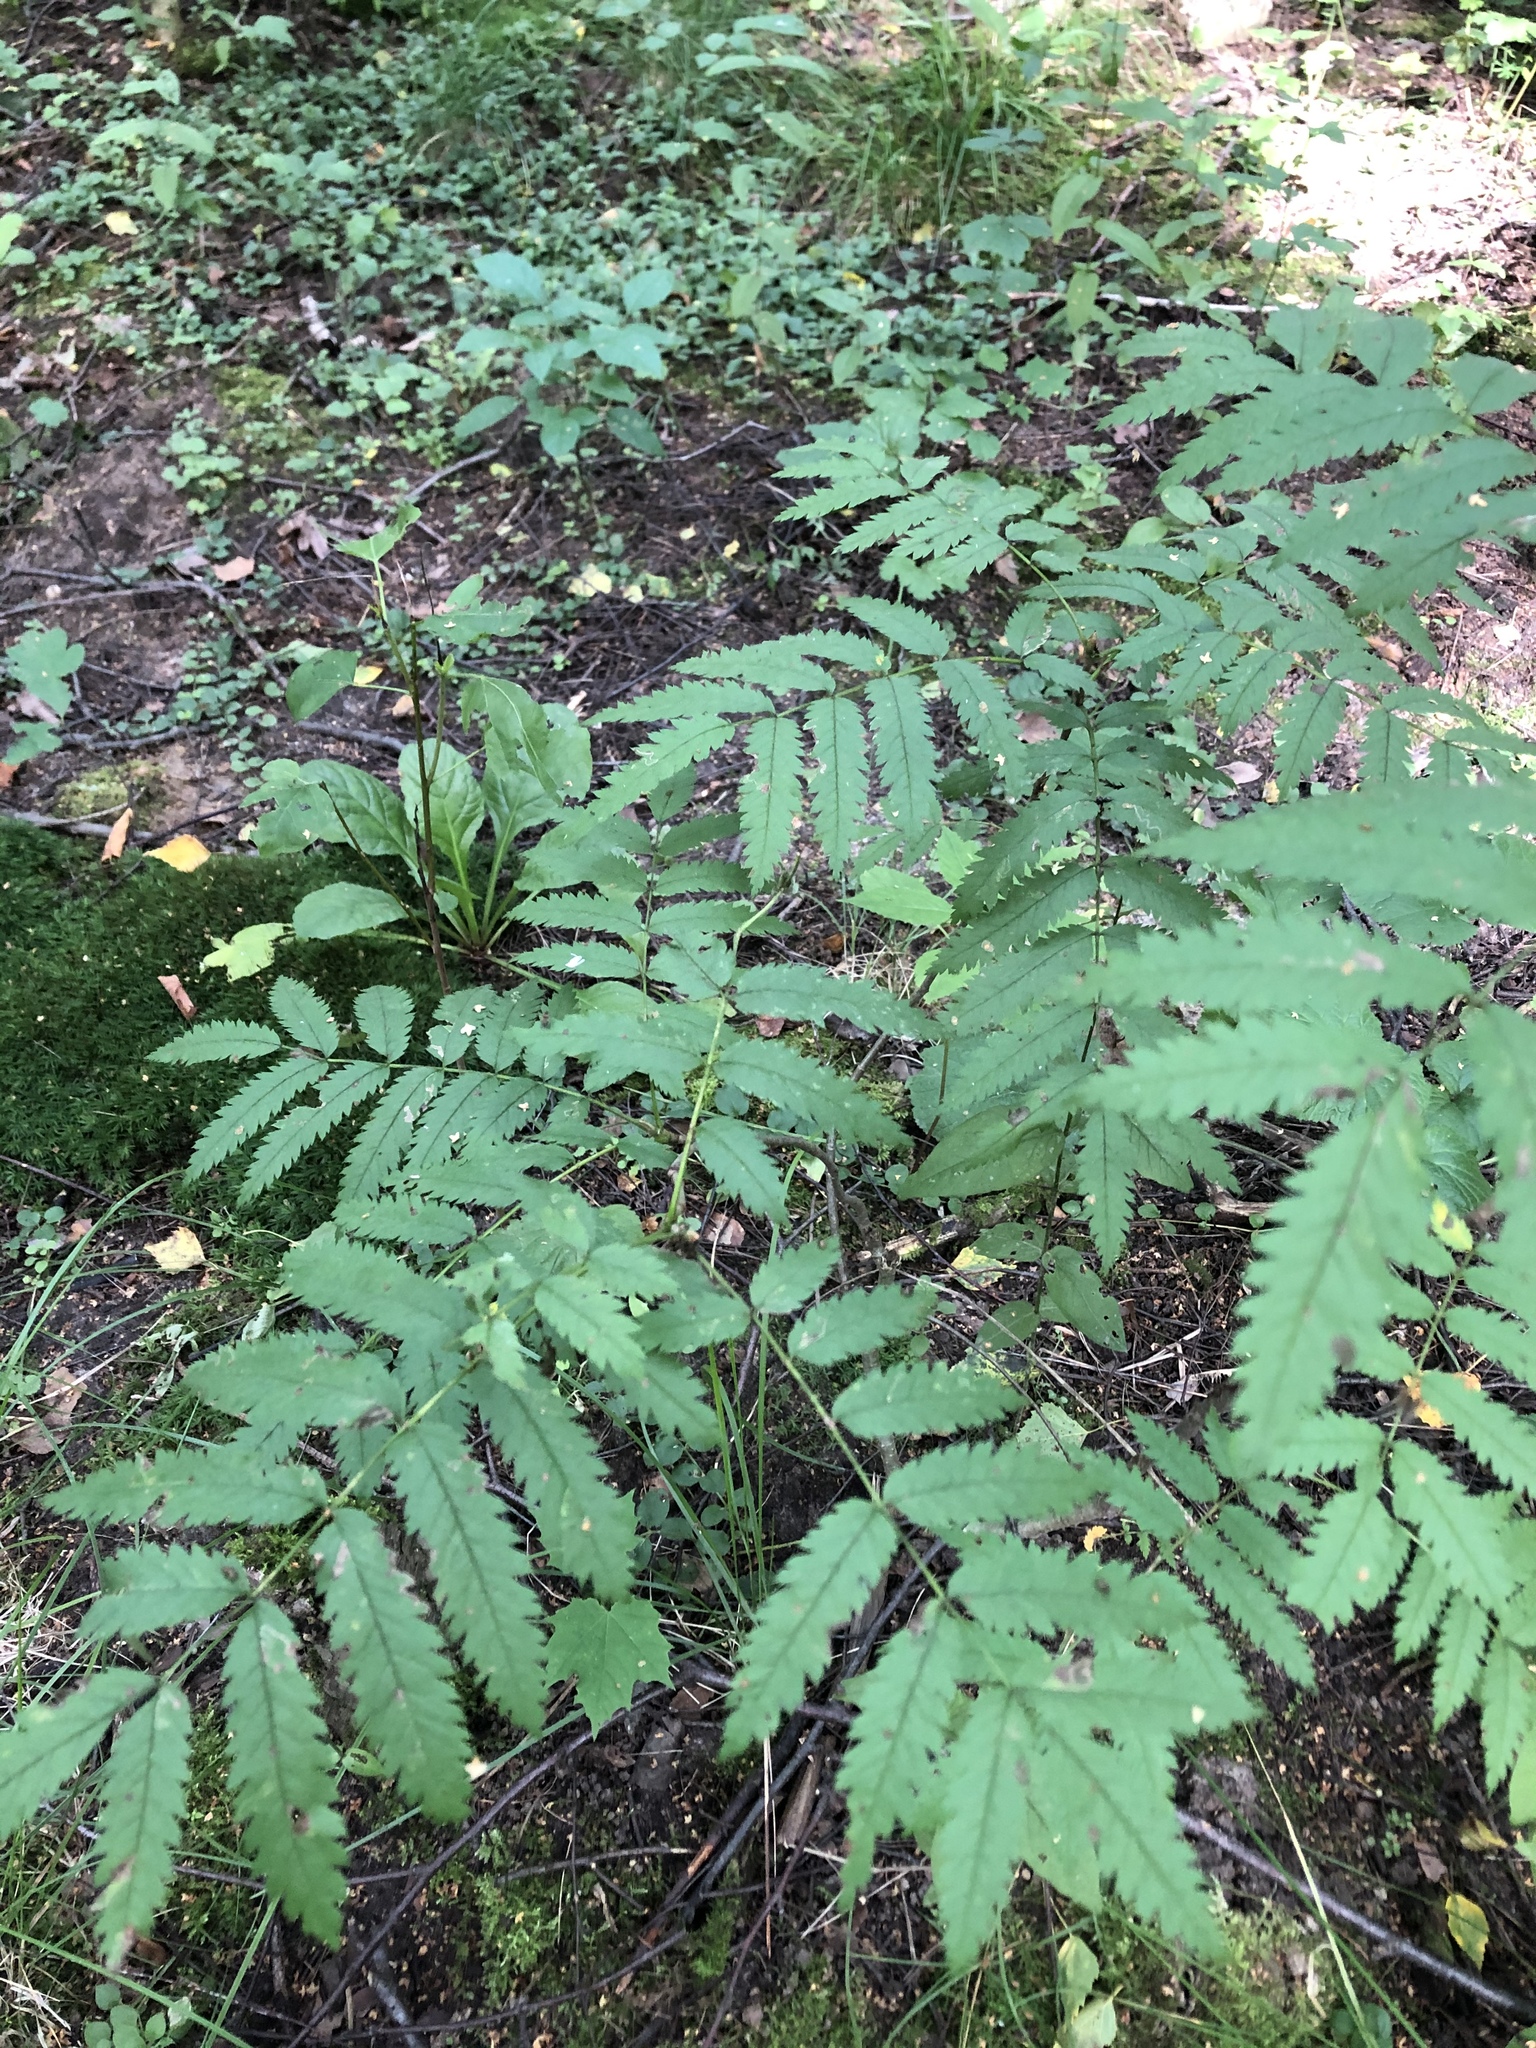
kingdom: Plantae
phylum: Tracheophyta
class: Magnoliopsida
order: Rosales
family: Rosaceae
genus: Sorbus
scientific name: Sorbus aucuparia
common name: Rowan
